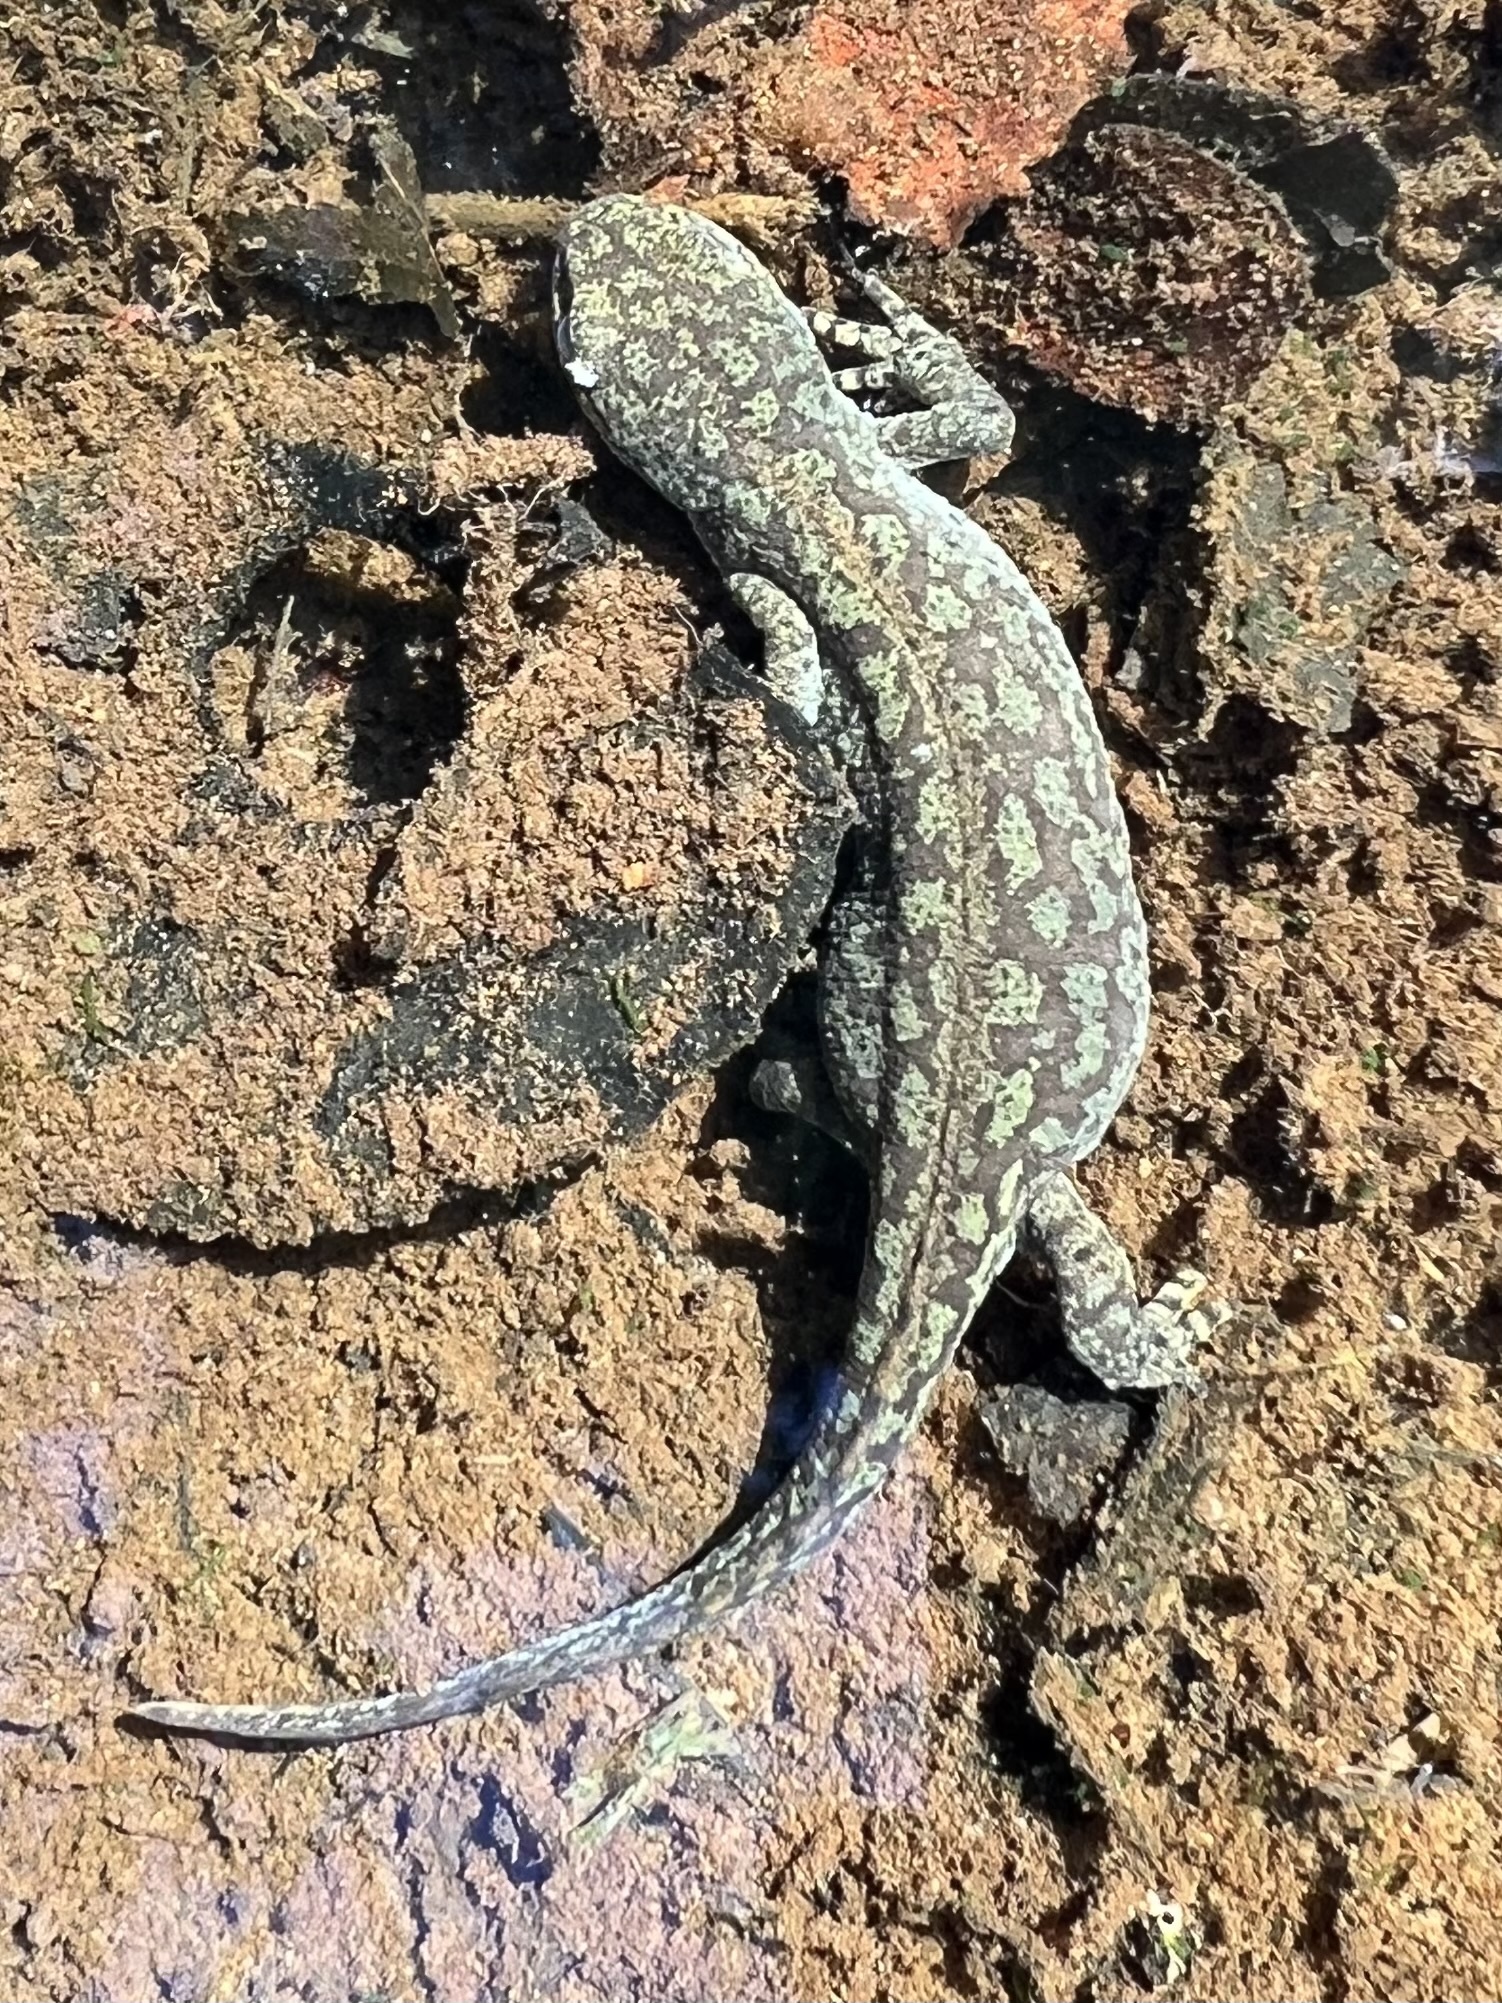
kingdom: Animalia
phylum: Chordata
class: Amphibia
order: Caudata
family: Salamandridae
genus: Ichthyosaura
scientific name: Ichthyosaura alpestris
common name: Alpine newt
